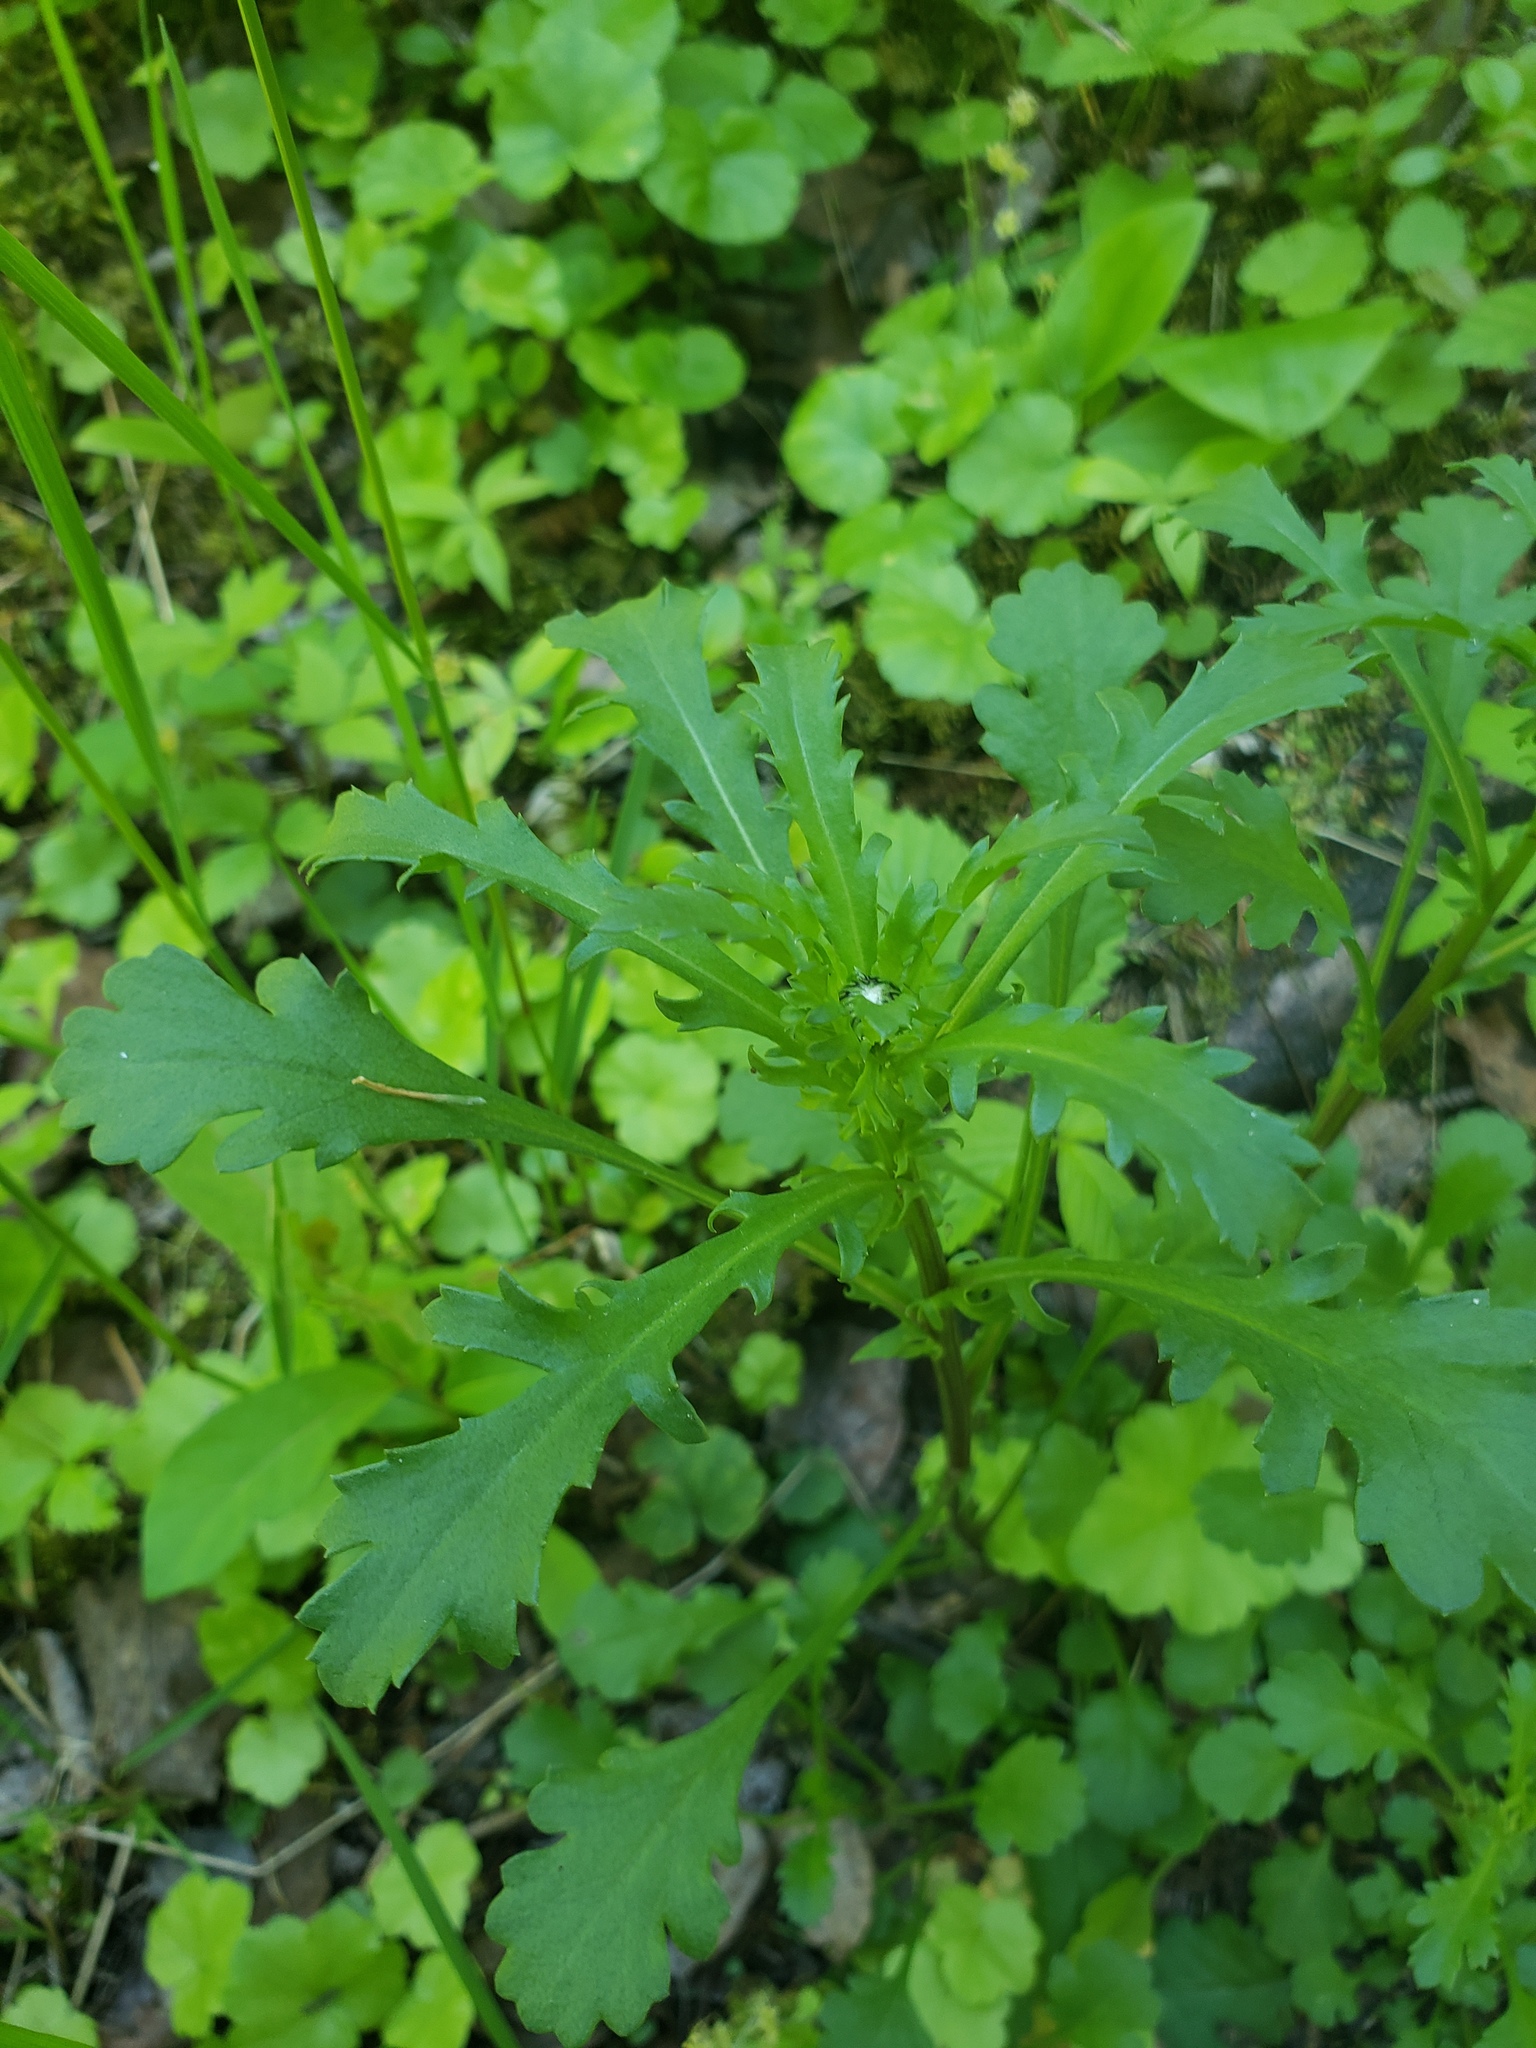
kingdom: Plantae
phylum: Tracheophyta
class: Magnoliopsida
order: Asterales
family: Asteraceae
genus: Leucanthemum
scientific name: Leucanthemum vulgare
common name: Oxeye daisy
